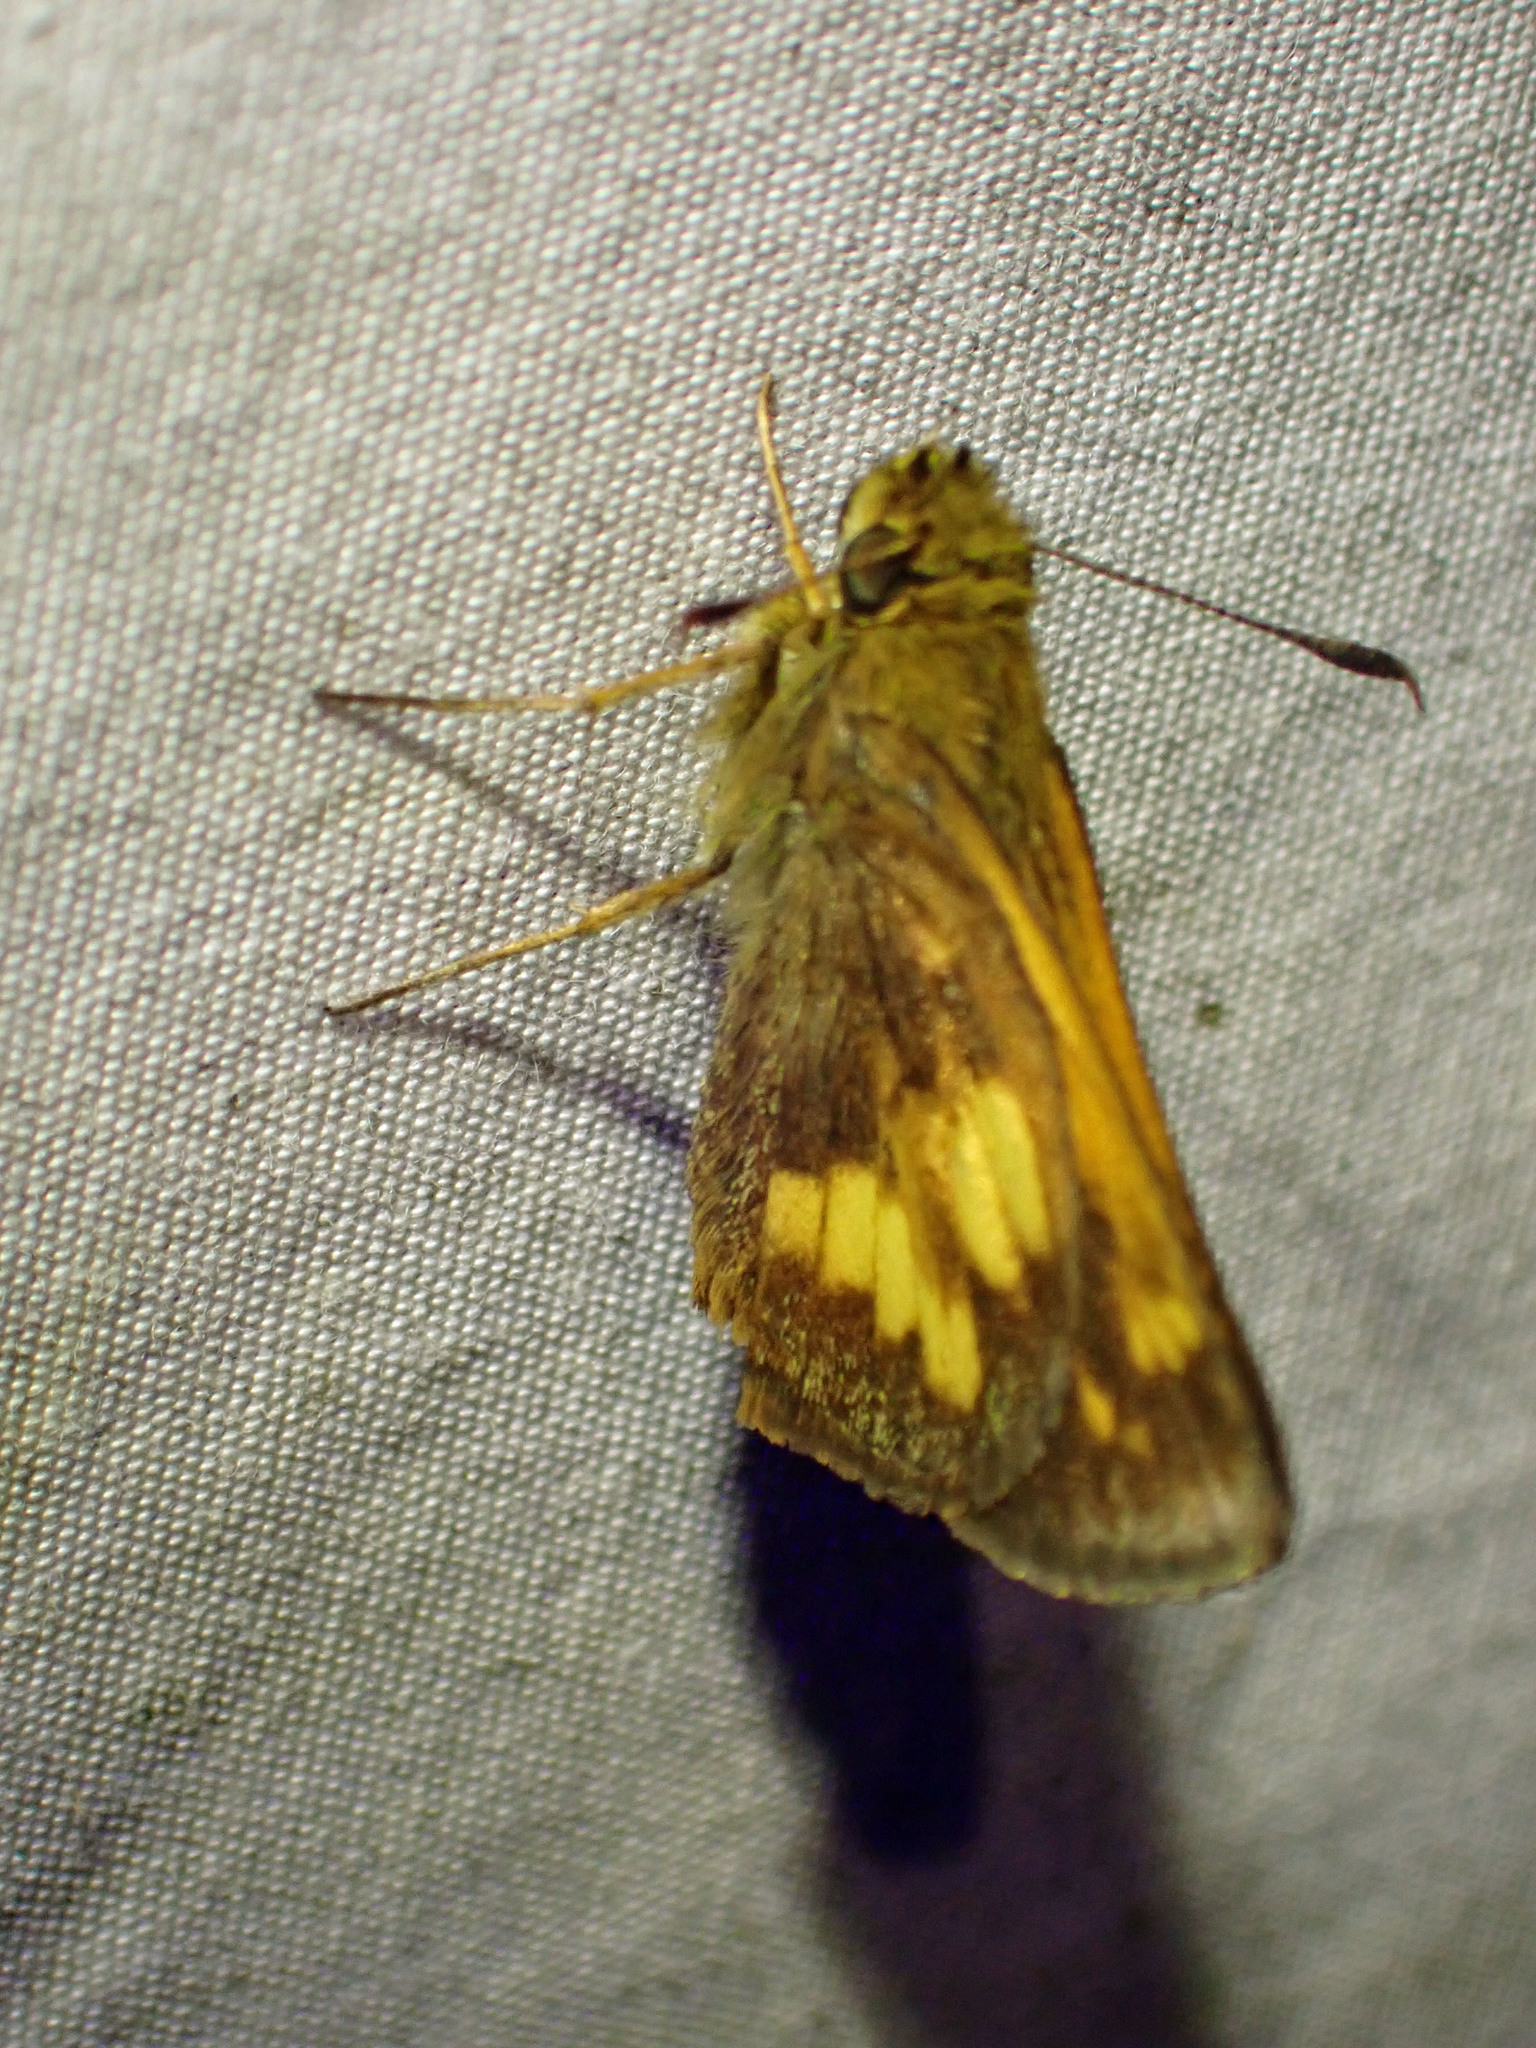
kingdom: Animalia
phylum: Arthropoda
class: Insecta
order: Lepidoptera
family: Hesperiidae
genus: Lon
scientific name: Lon hobomok
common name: Hobomok skipper
